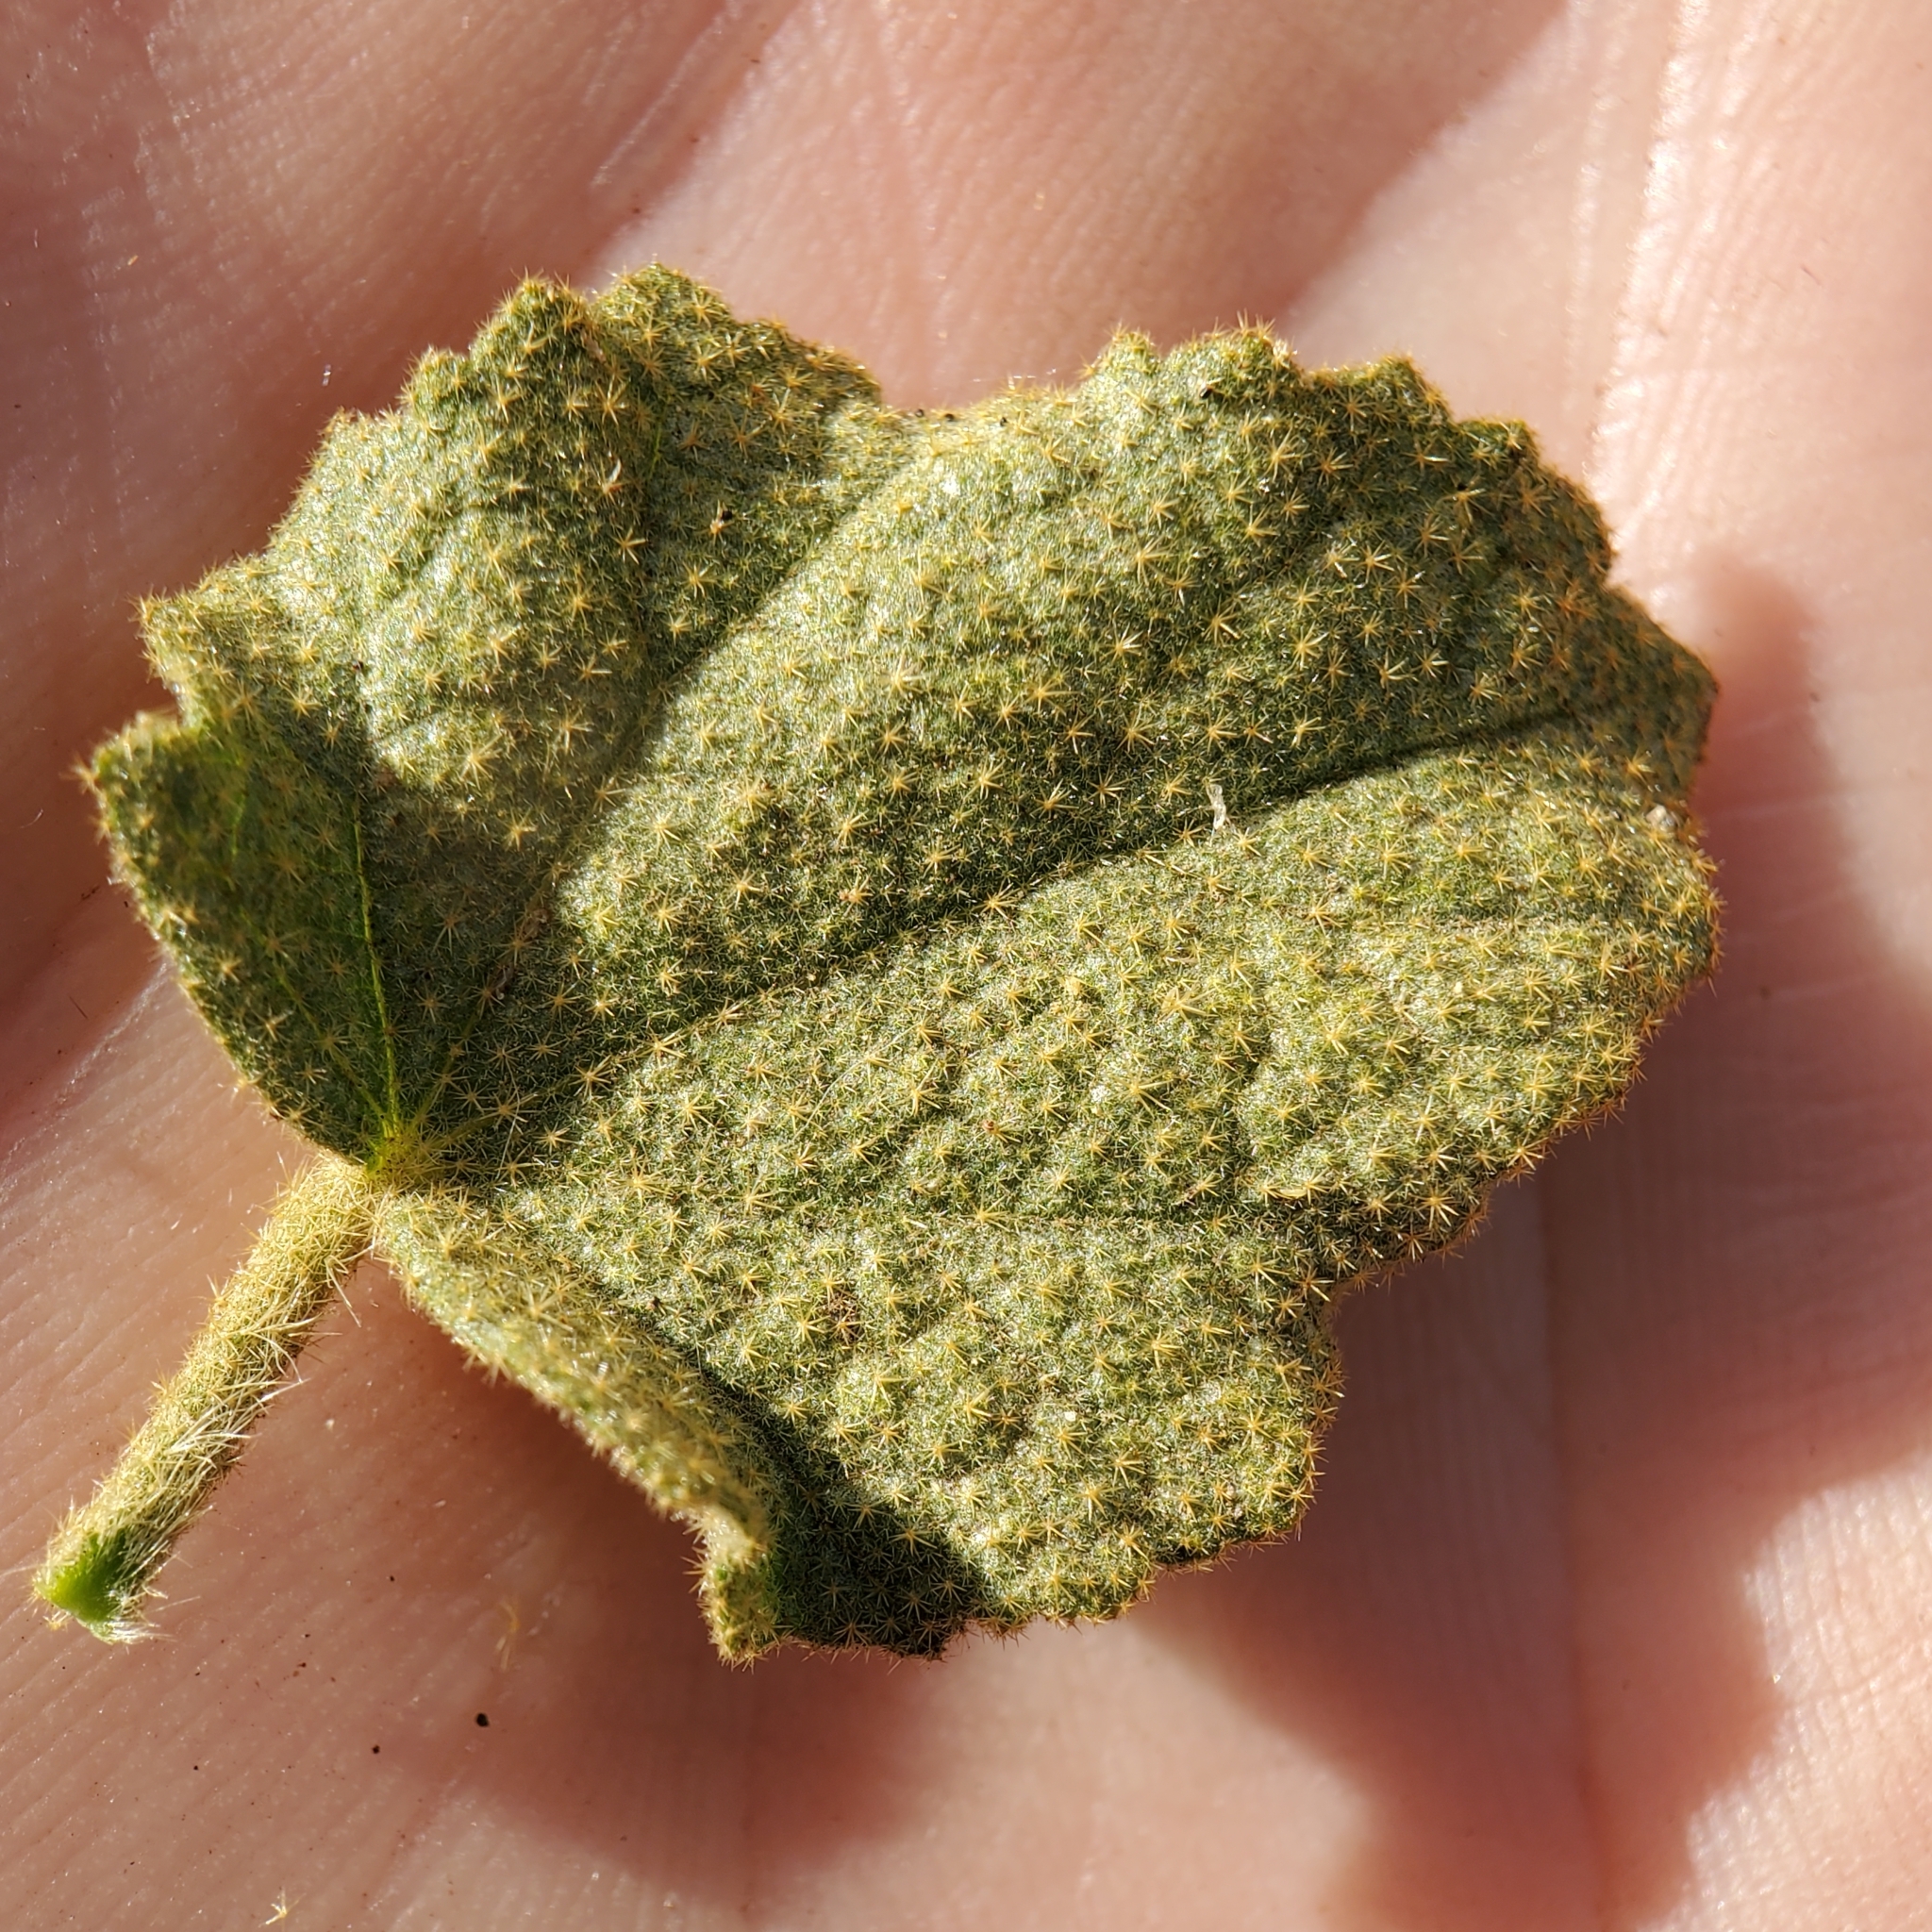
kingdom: Plantae
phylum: Tracheophyta
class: Magnoliopsida
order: Malvales
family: Malvaceae
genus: Malacothamnus
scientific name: Malacothamnus densiflorus
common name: Yellow-stem bush-mallow
